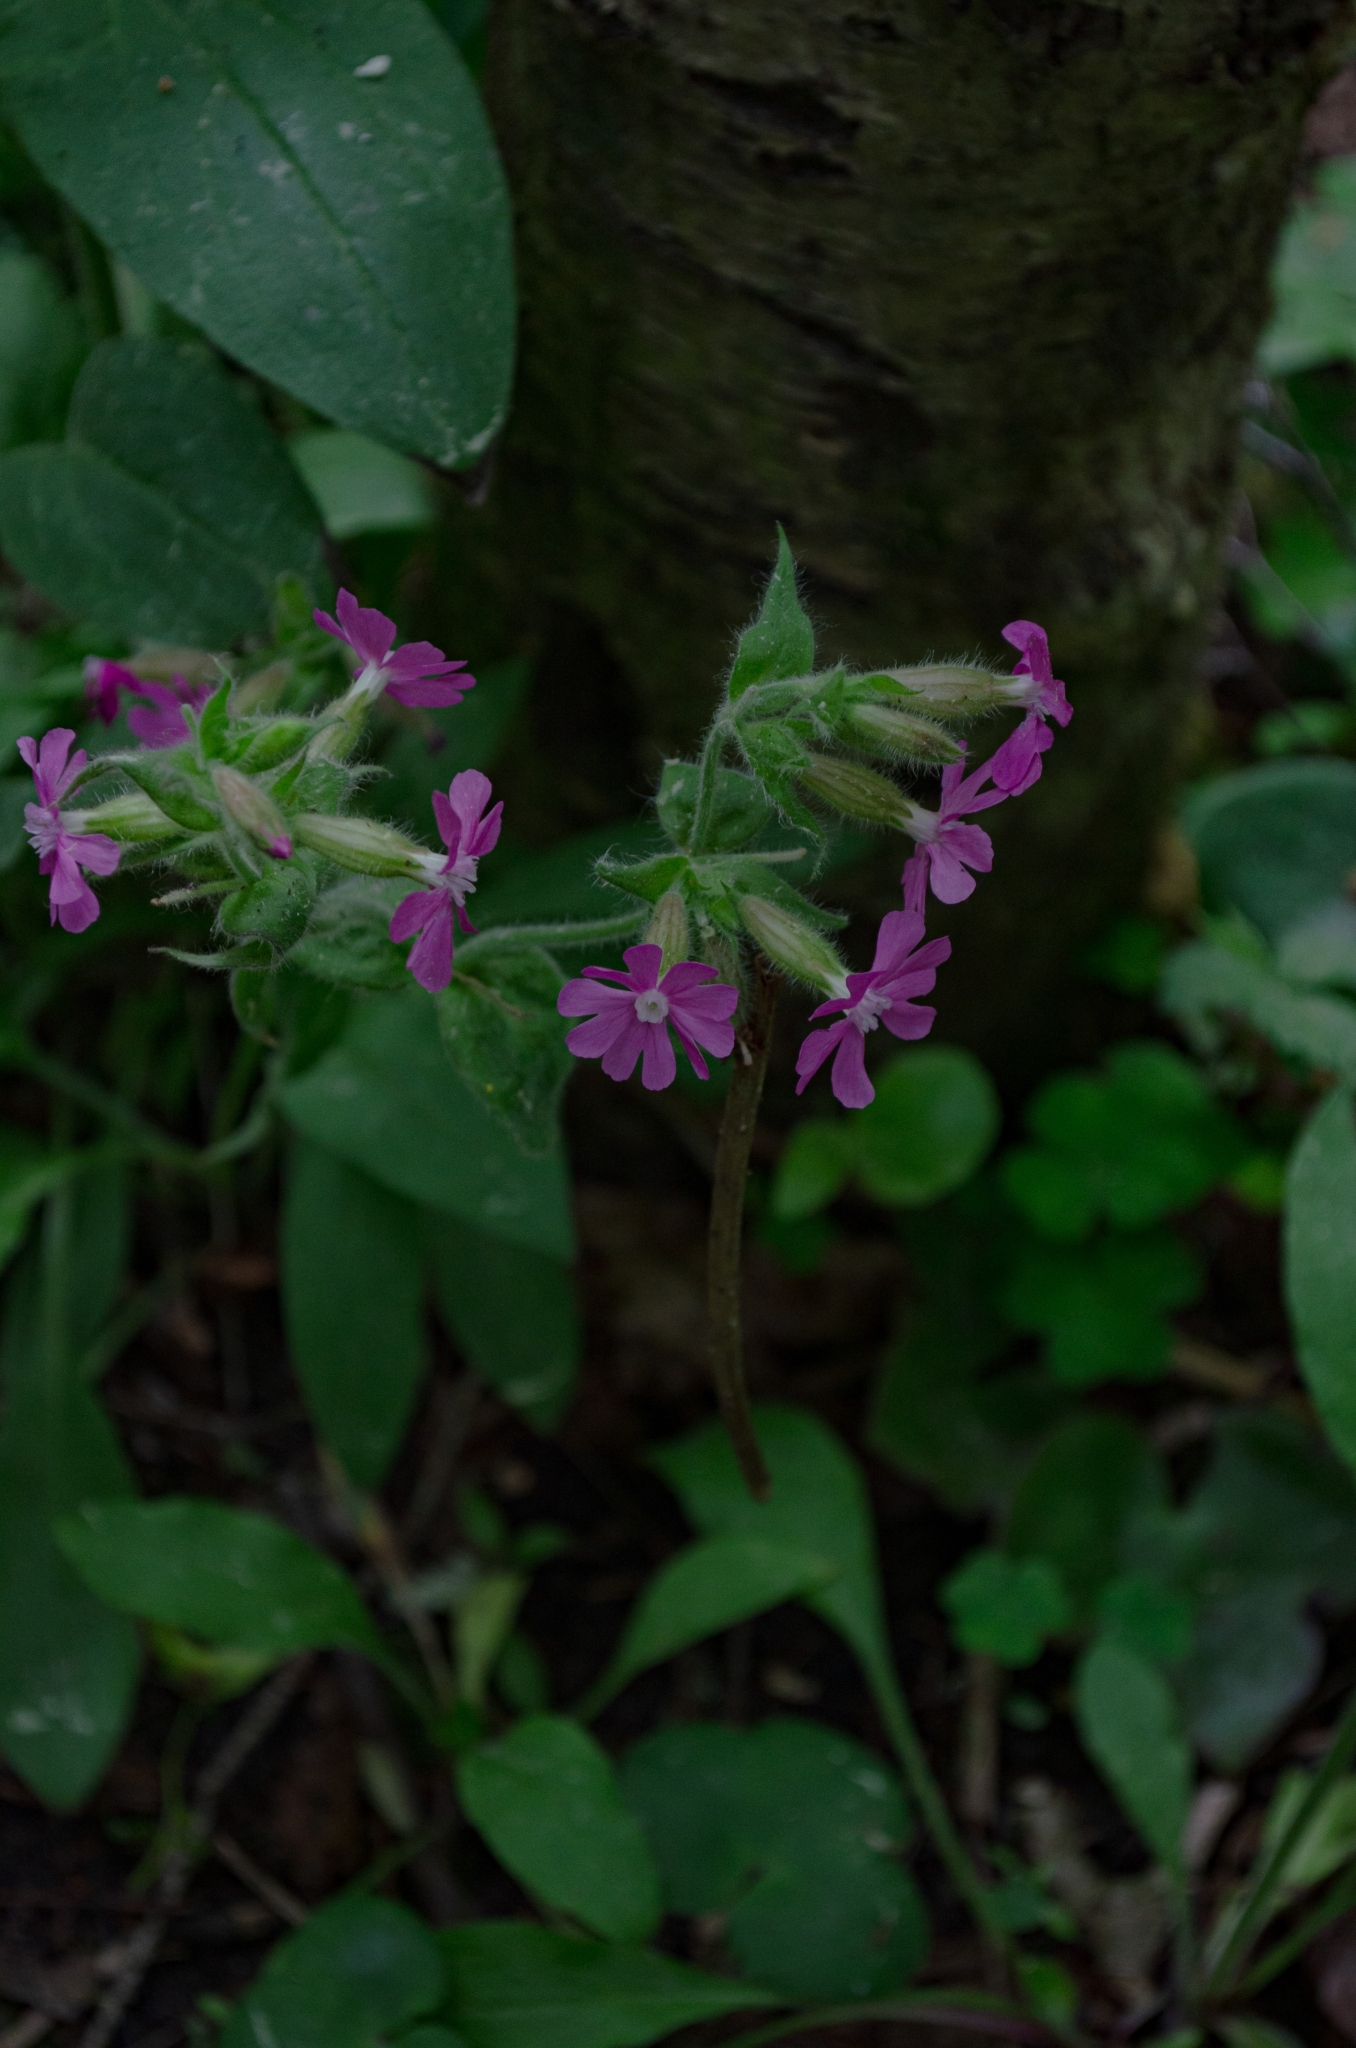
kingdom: Plantae
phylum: Tracheophyta
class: Magnoliopsida
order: Caryophyllales
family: Caryophyllaceae
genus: Silene
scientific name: Silene dioica
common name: Red campion
